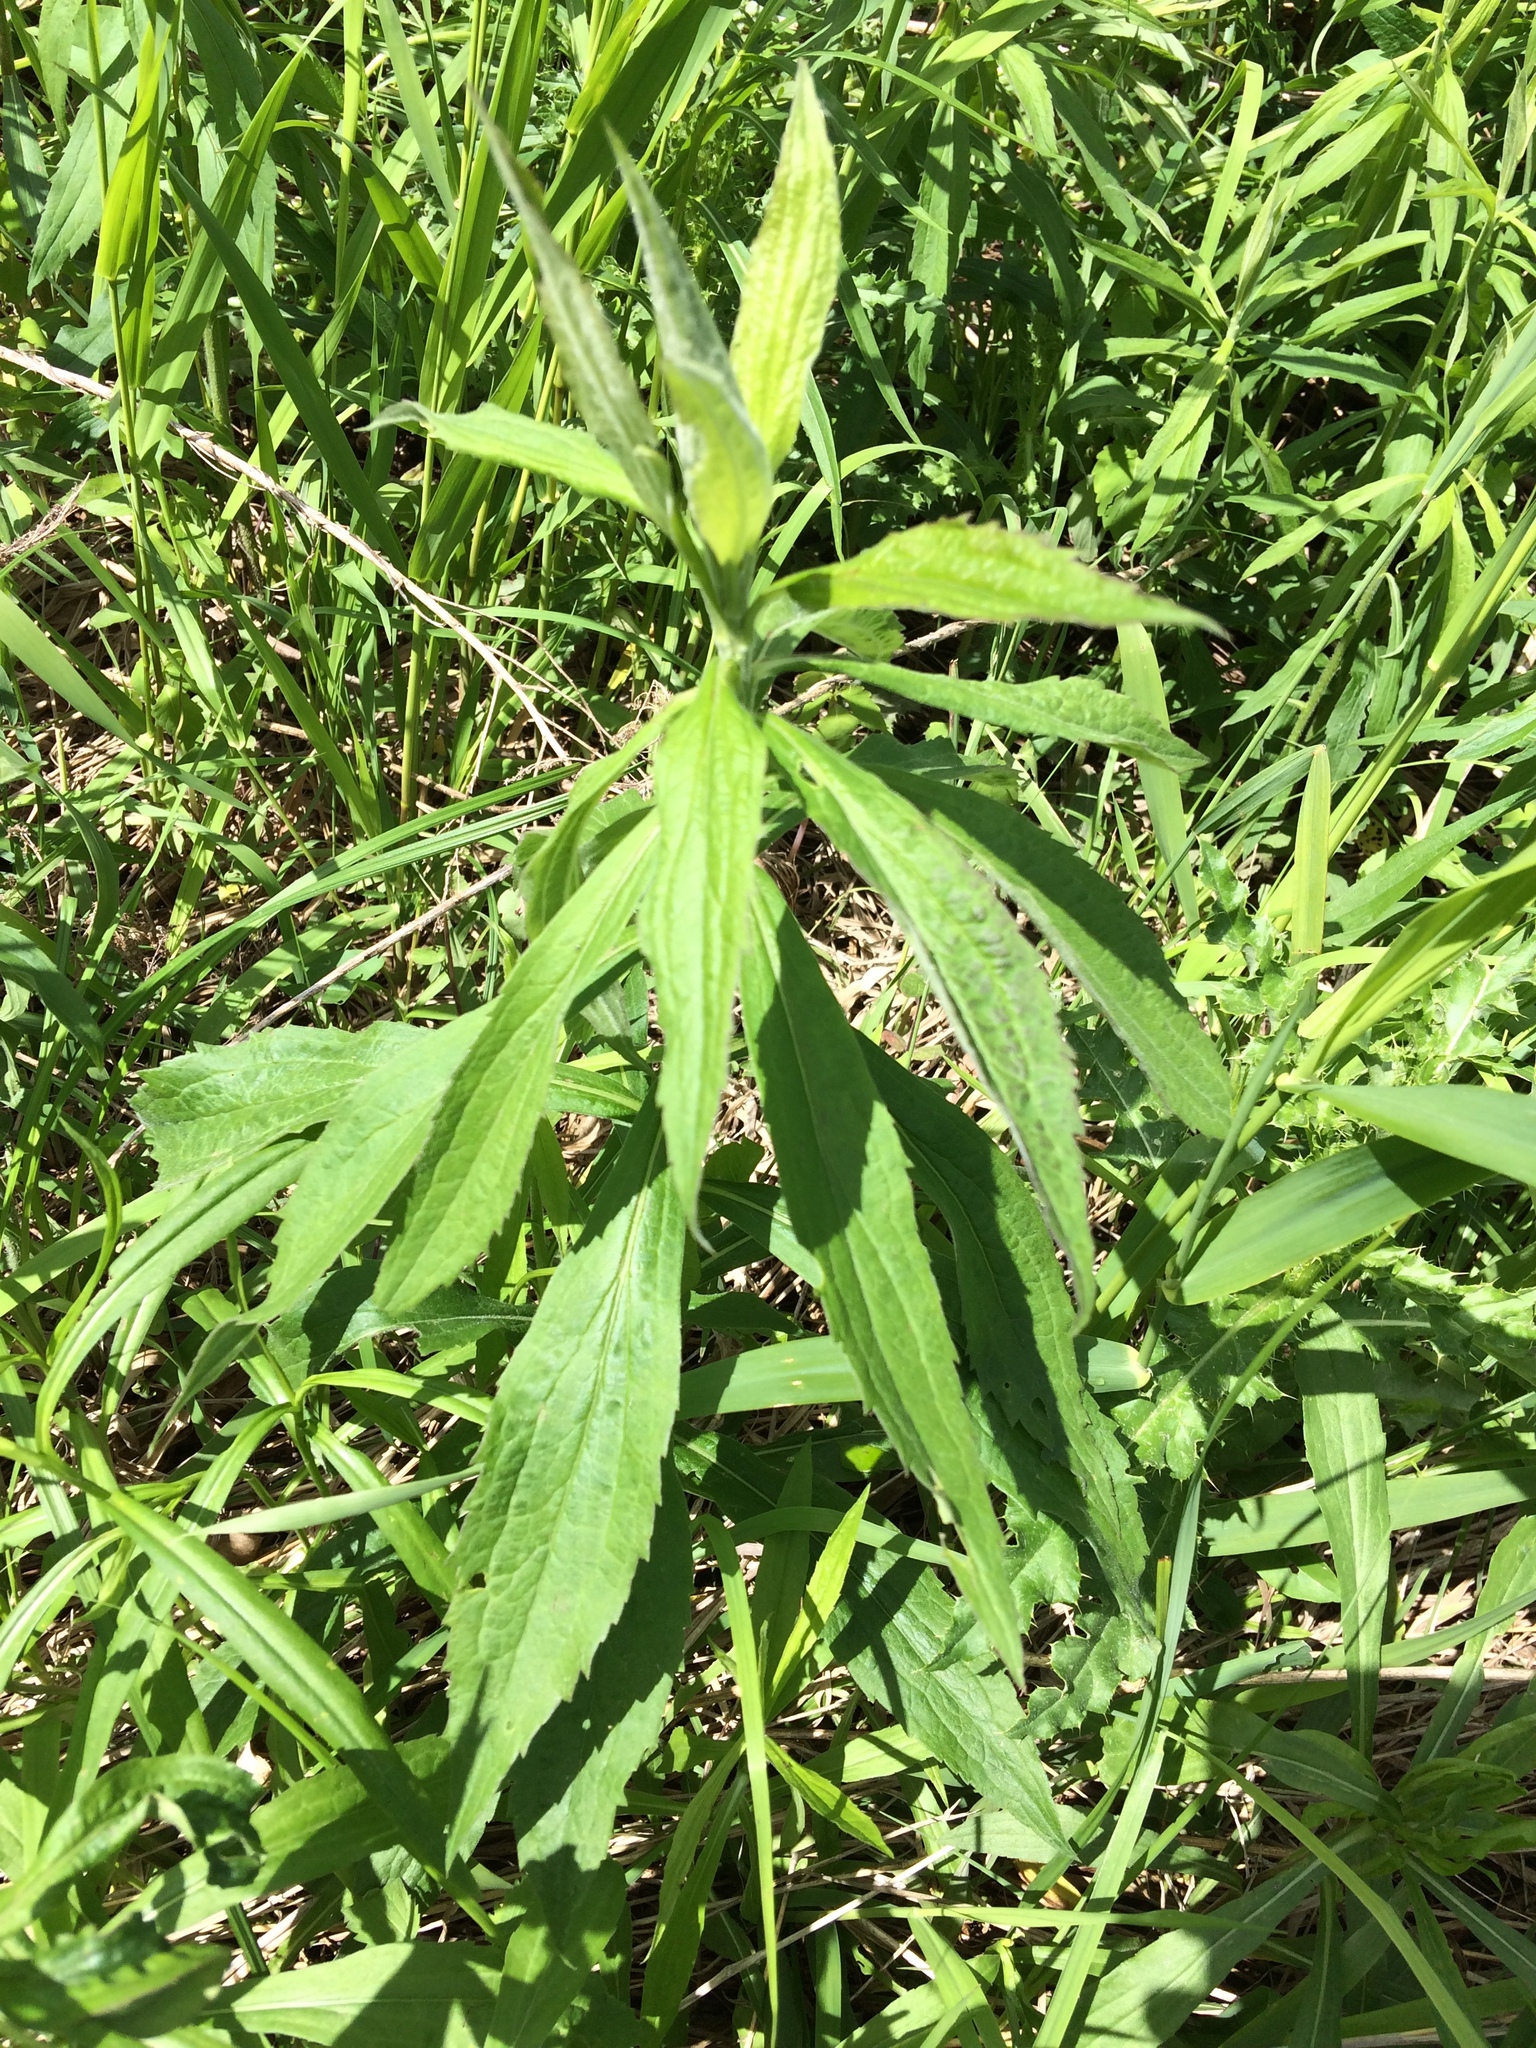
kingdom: Plantae
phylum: Tracheophyta
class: Magnoliopsida
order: Asterales
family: Asteraceae
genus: Solidago
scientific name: Solidago rugosa
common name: Rough-stemmed goldenrod
